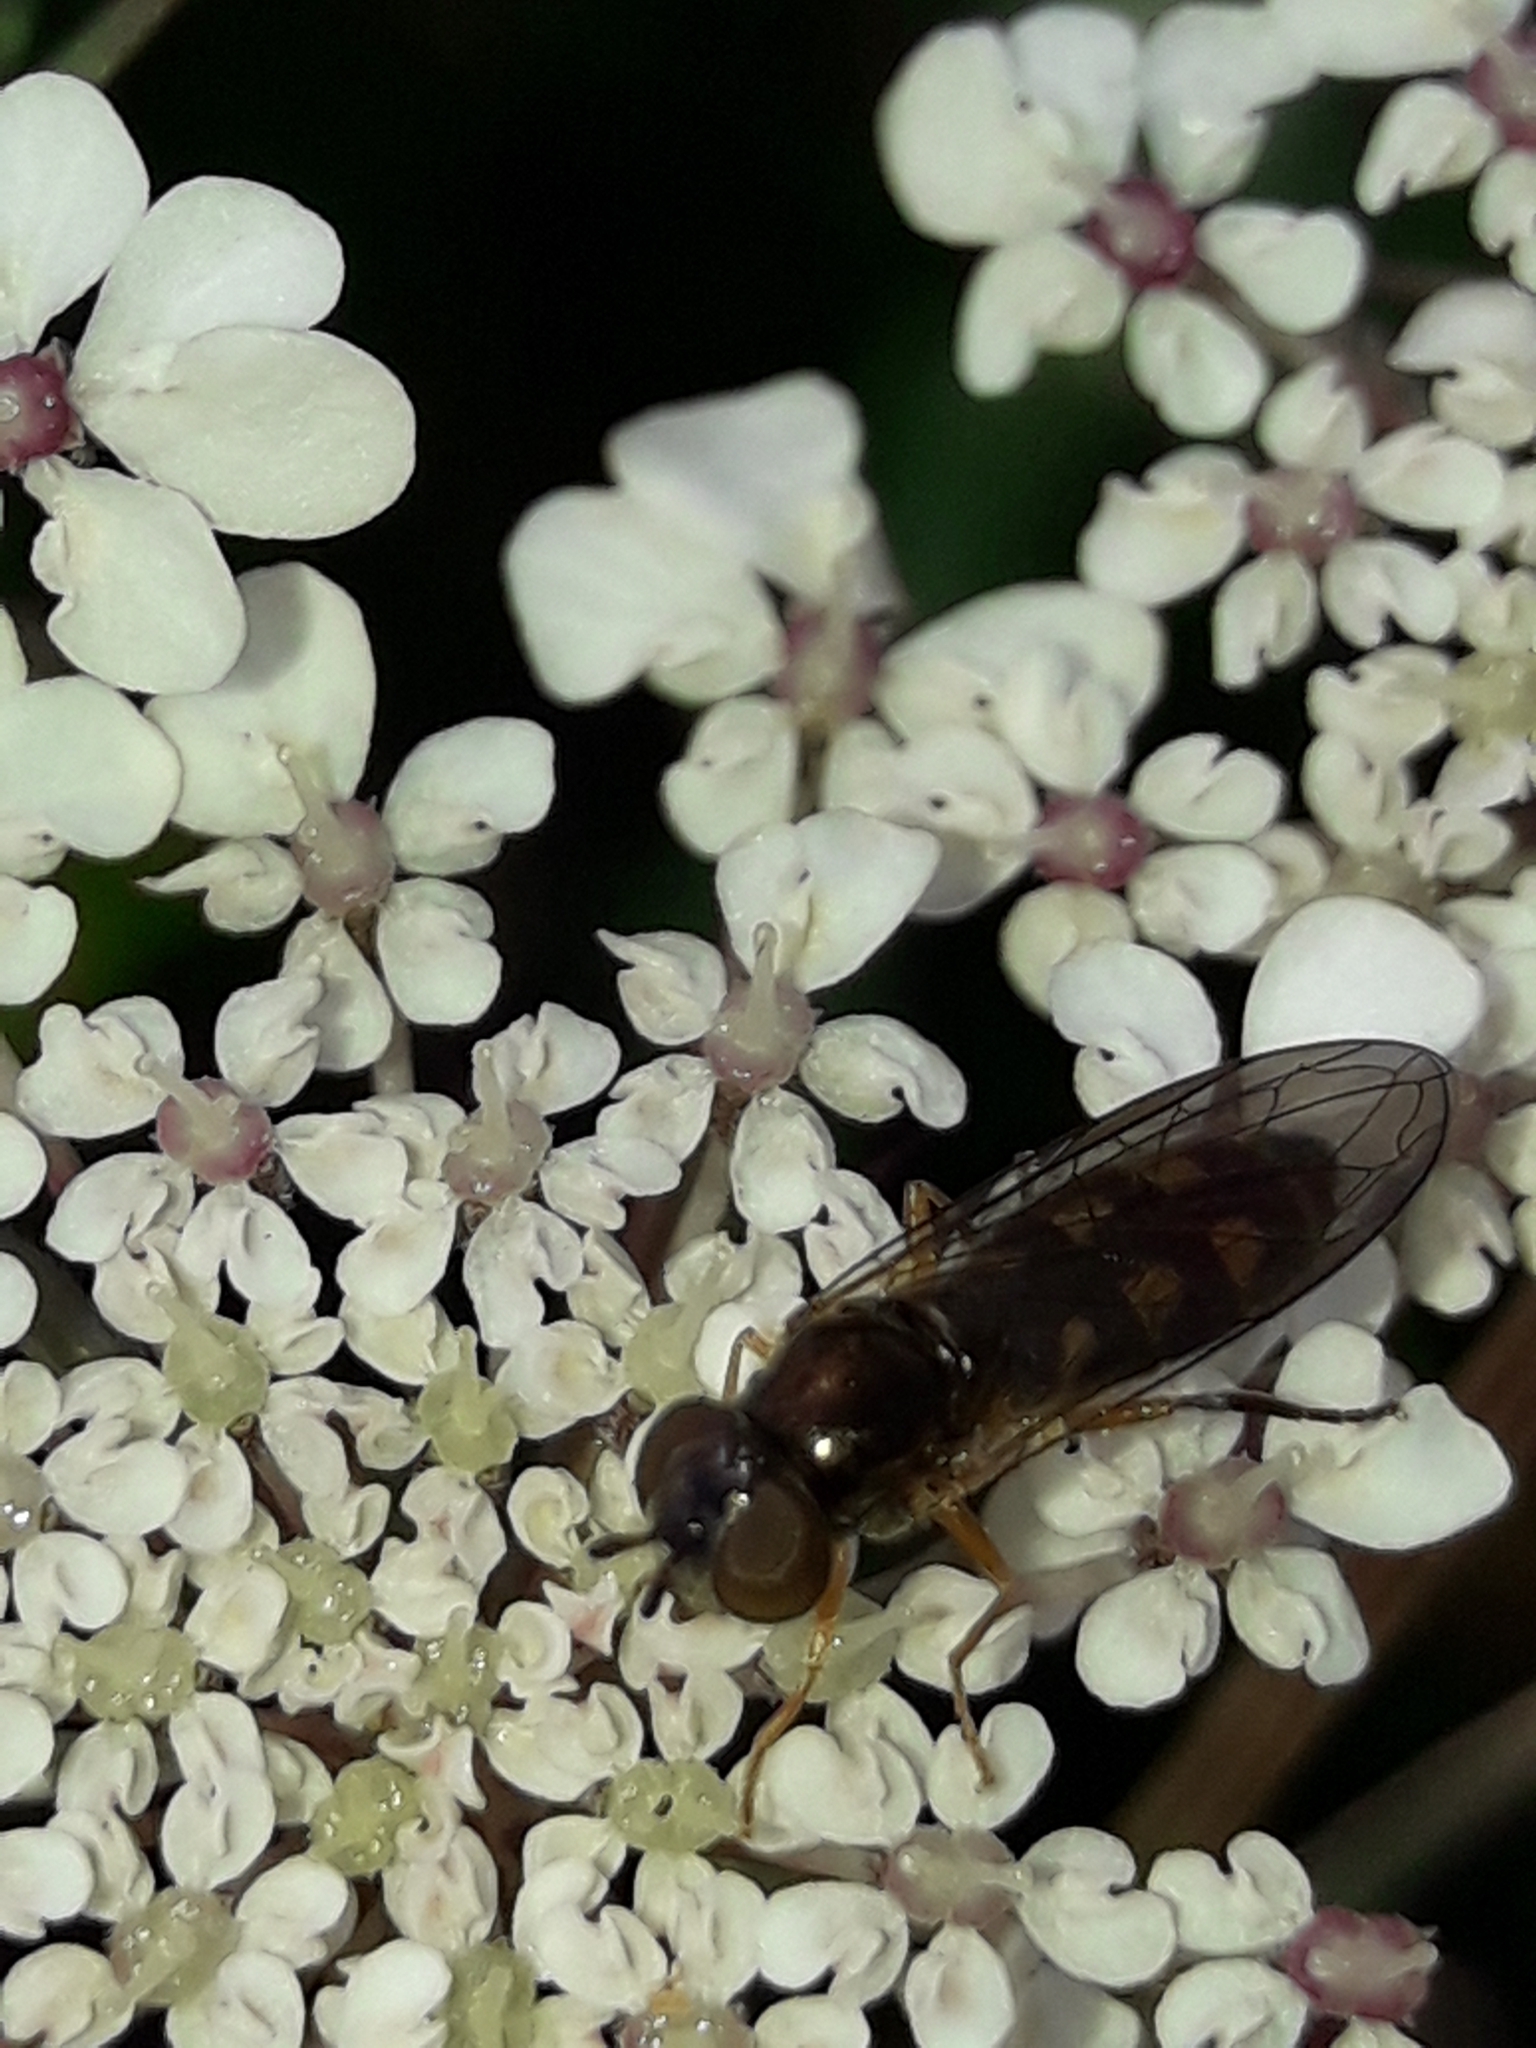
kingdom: Animalia
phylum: Arthropoda
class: Insecta
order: Diptera
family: Syrphidae
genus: Melanostoma
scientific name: Melanostoma fasciatum
